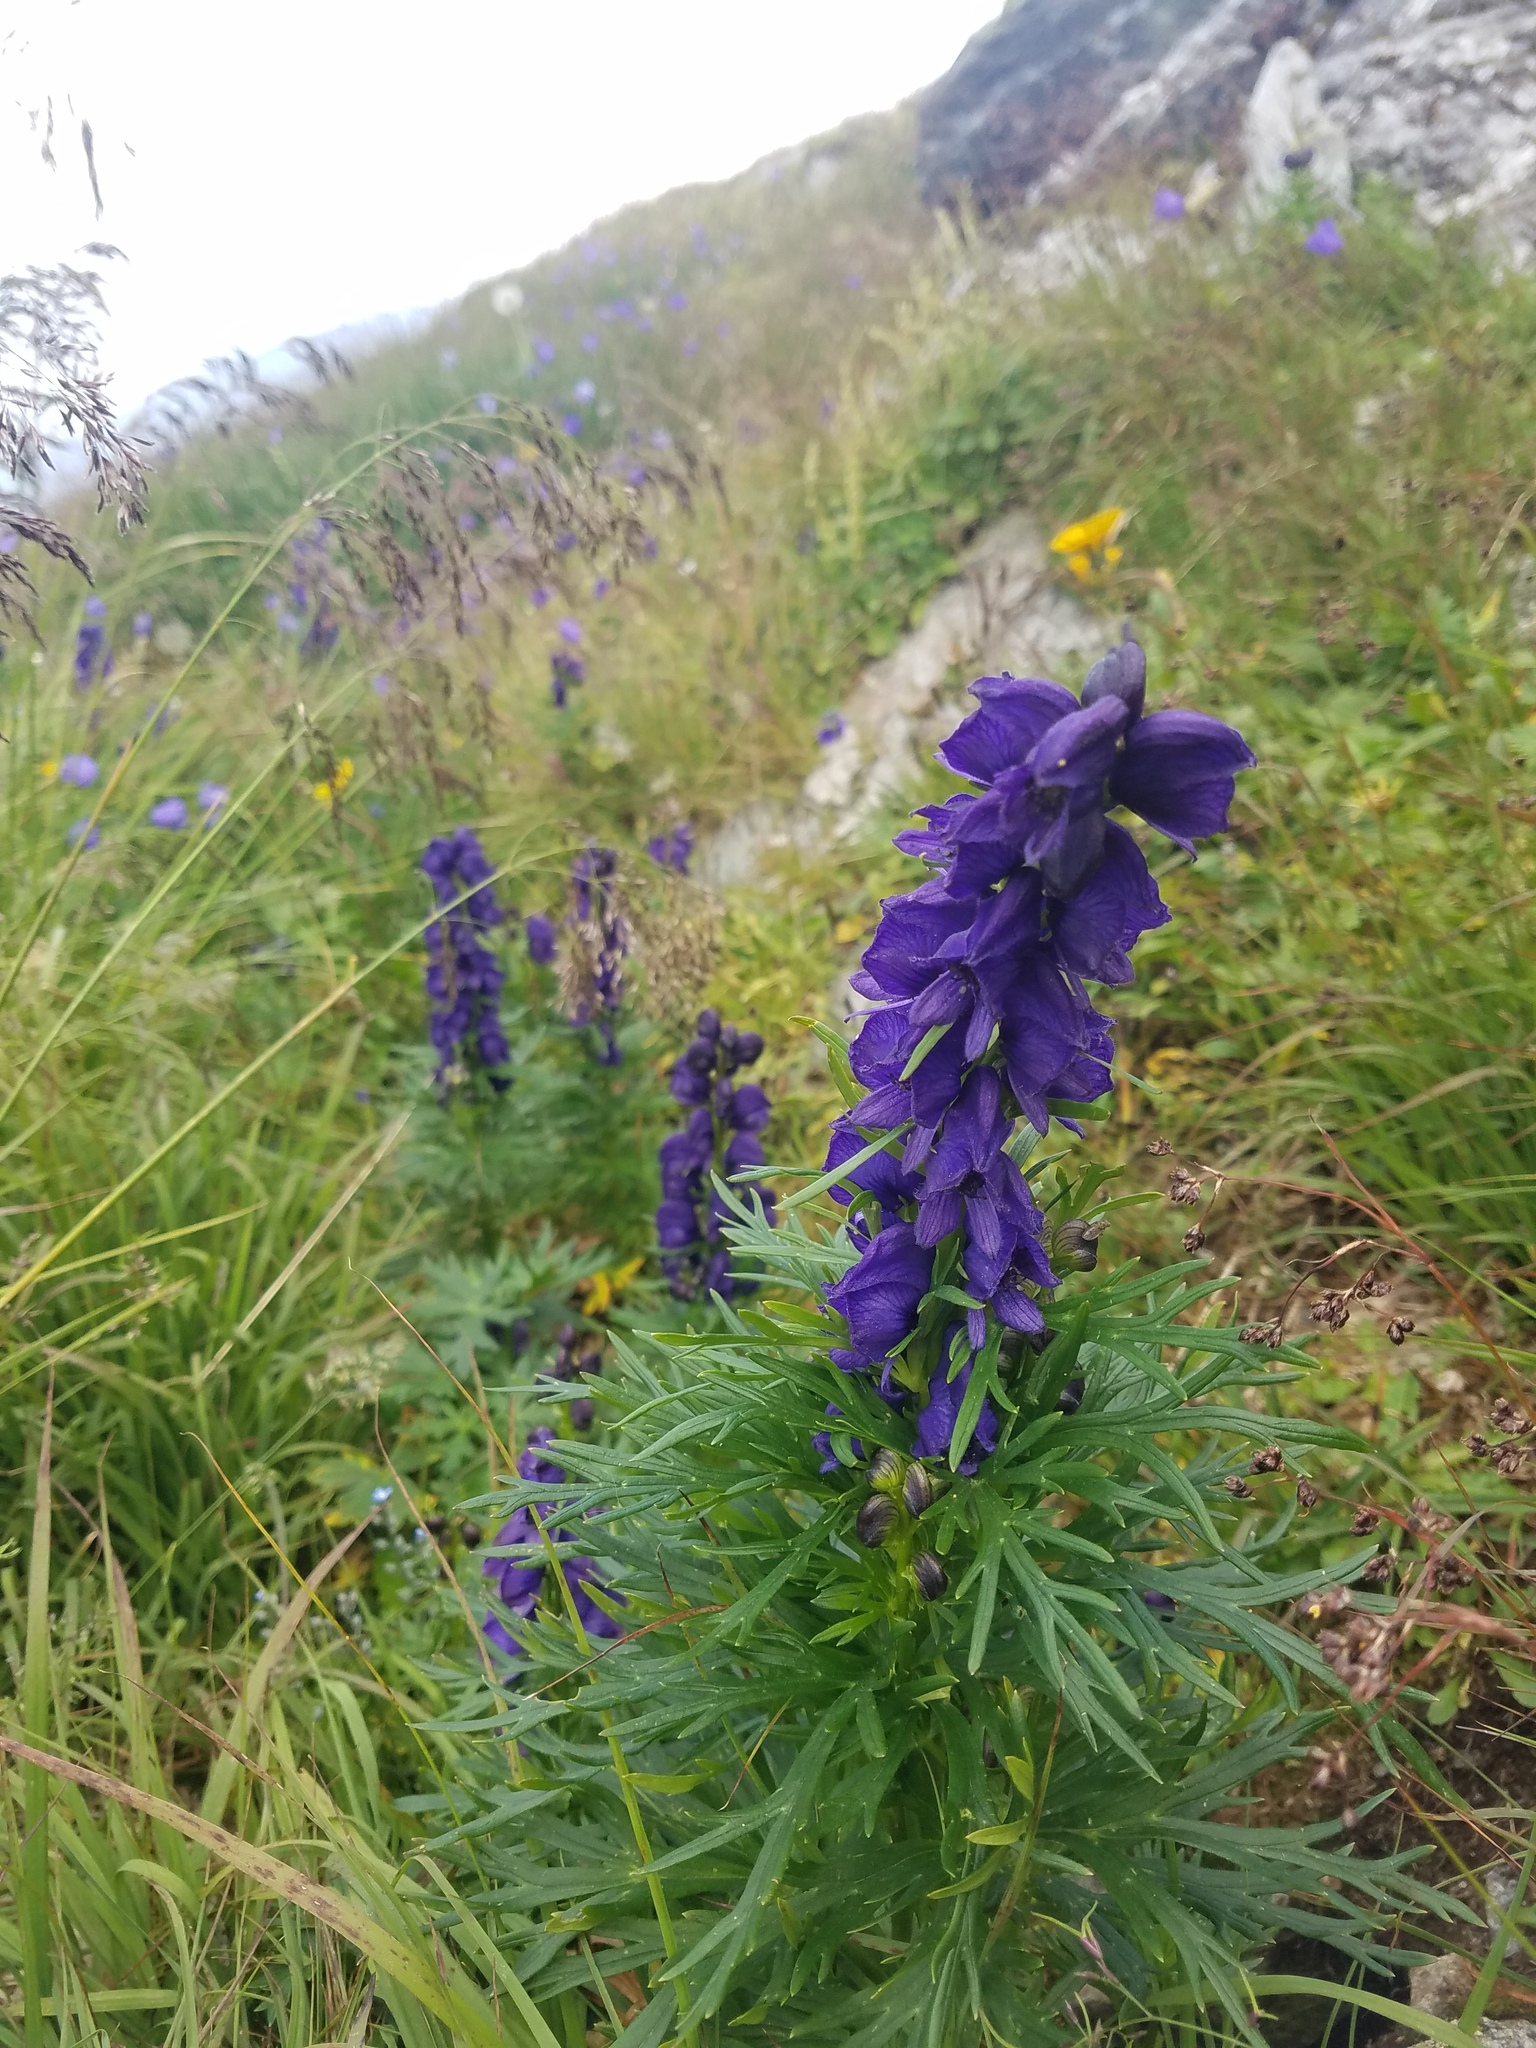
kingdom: Plantae
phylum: Tracheophyta
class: Magnoliopsida
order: Ranunculales
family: Ranunculaceae
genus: Aconitum
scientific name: Aconitum tauricum
